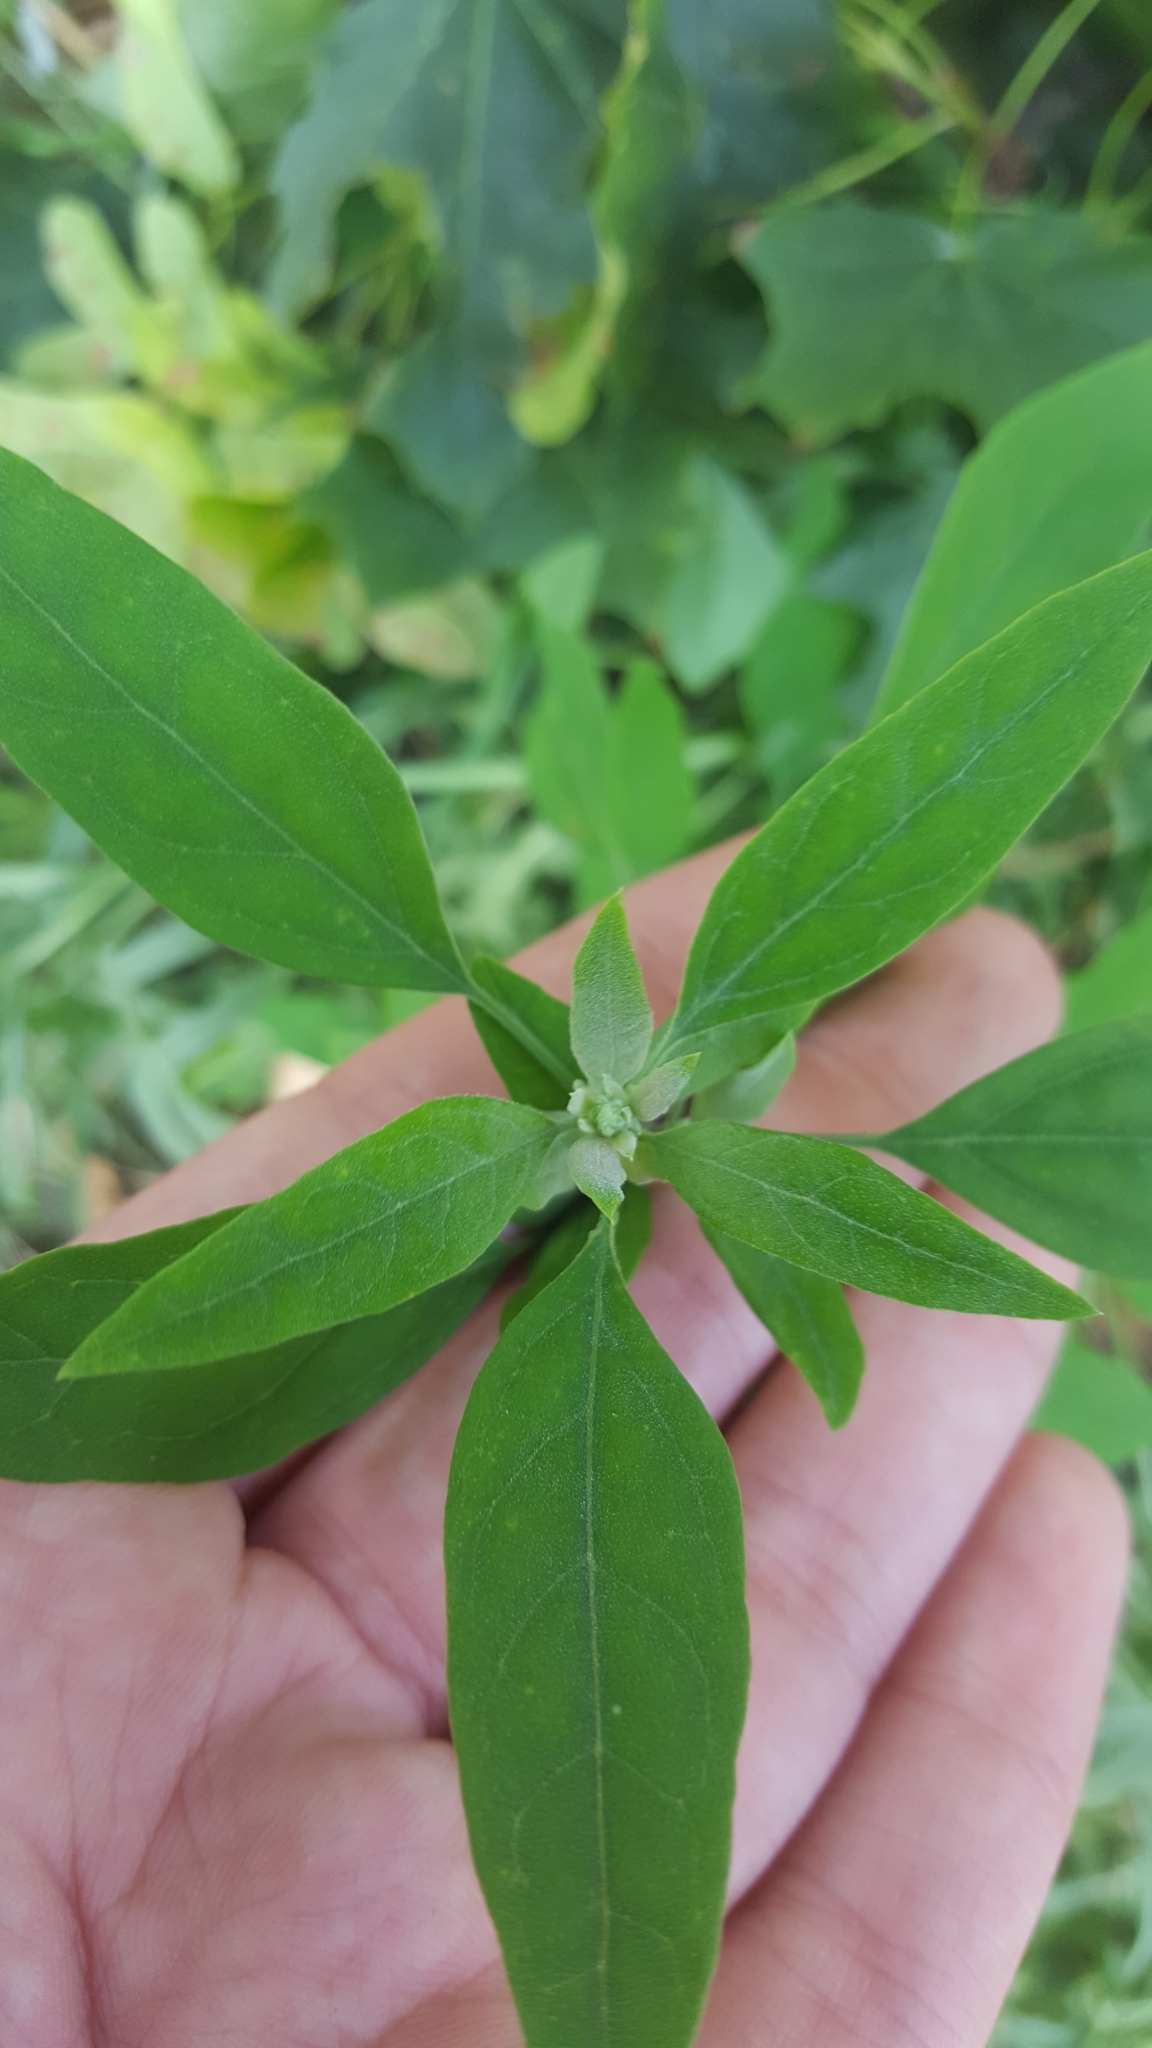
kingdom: Plantae
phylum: Tracheophyta
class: Magnoliopsida
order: Caryophyllales
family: Amaranthaceae
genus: Chenopodium
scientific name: Chenopodium album
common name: Fat-hen
